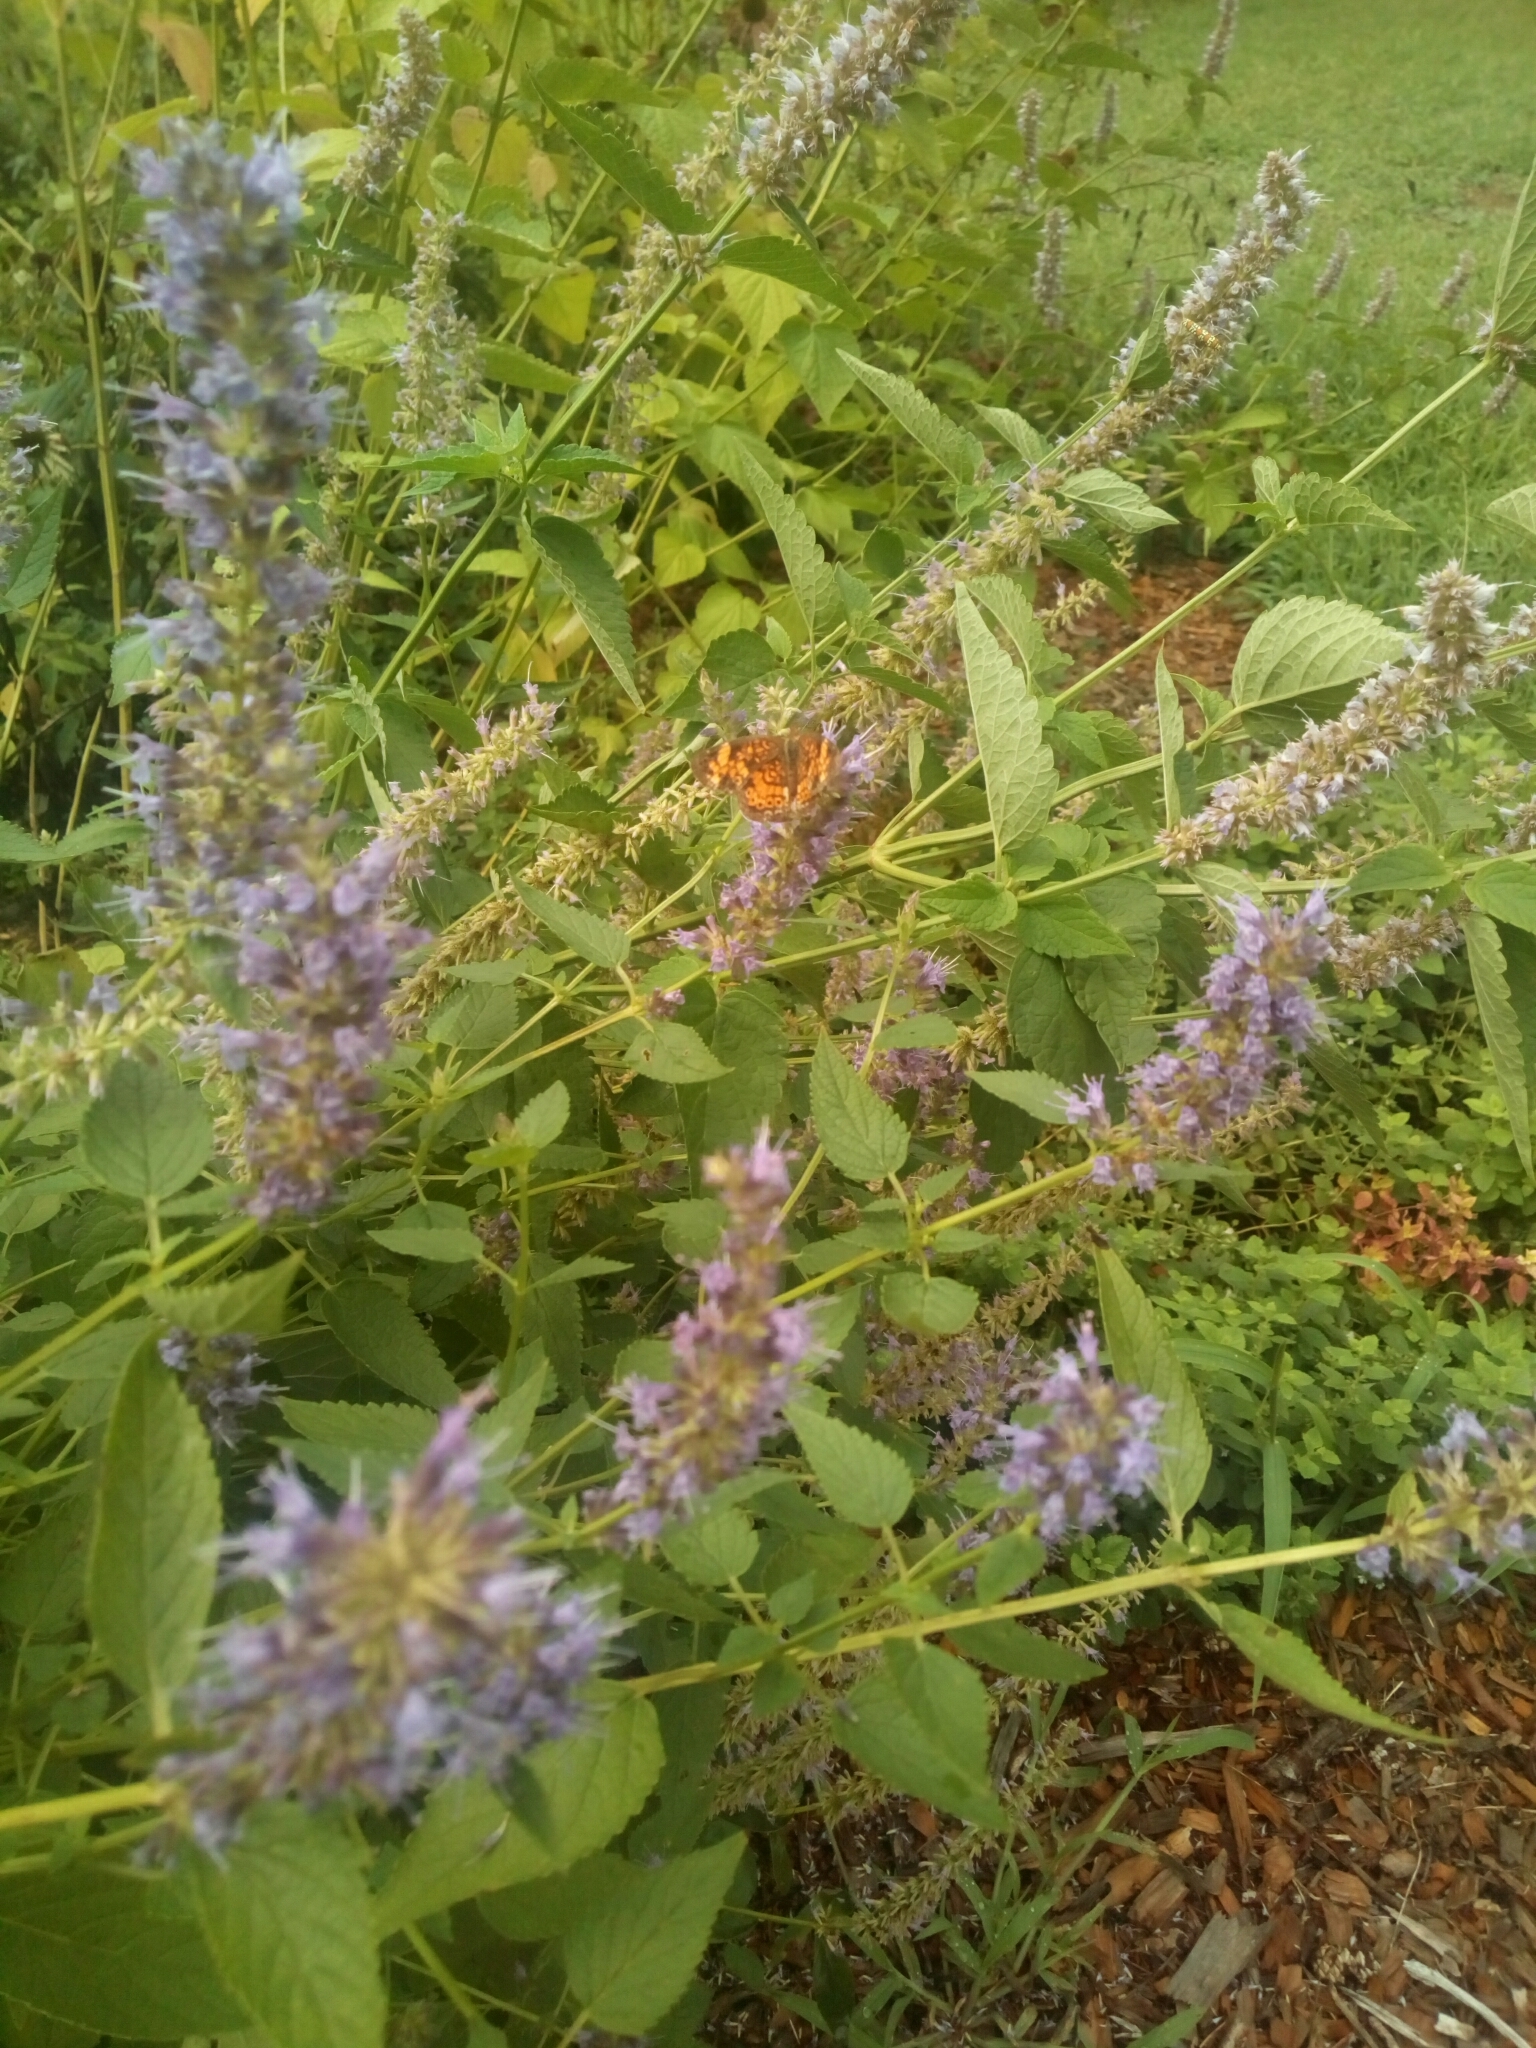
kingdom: Animalia
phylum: Arthropoda
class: Insecta
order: Lepidoptera
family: Nymphalidae
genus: Phyciodes
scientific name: Phyciodes tharos
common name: Pearl crescent
